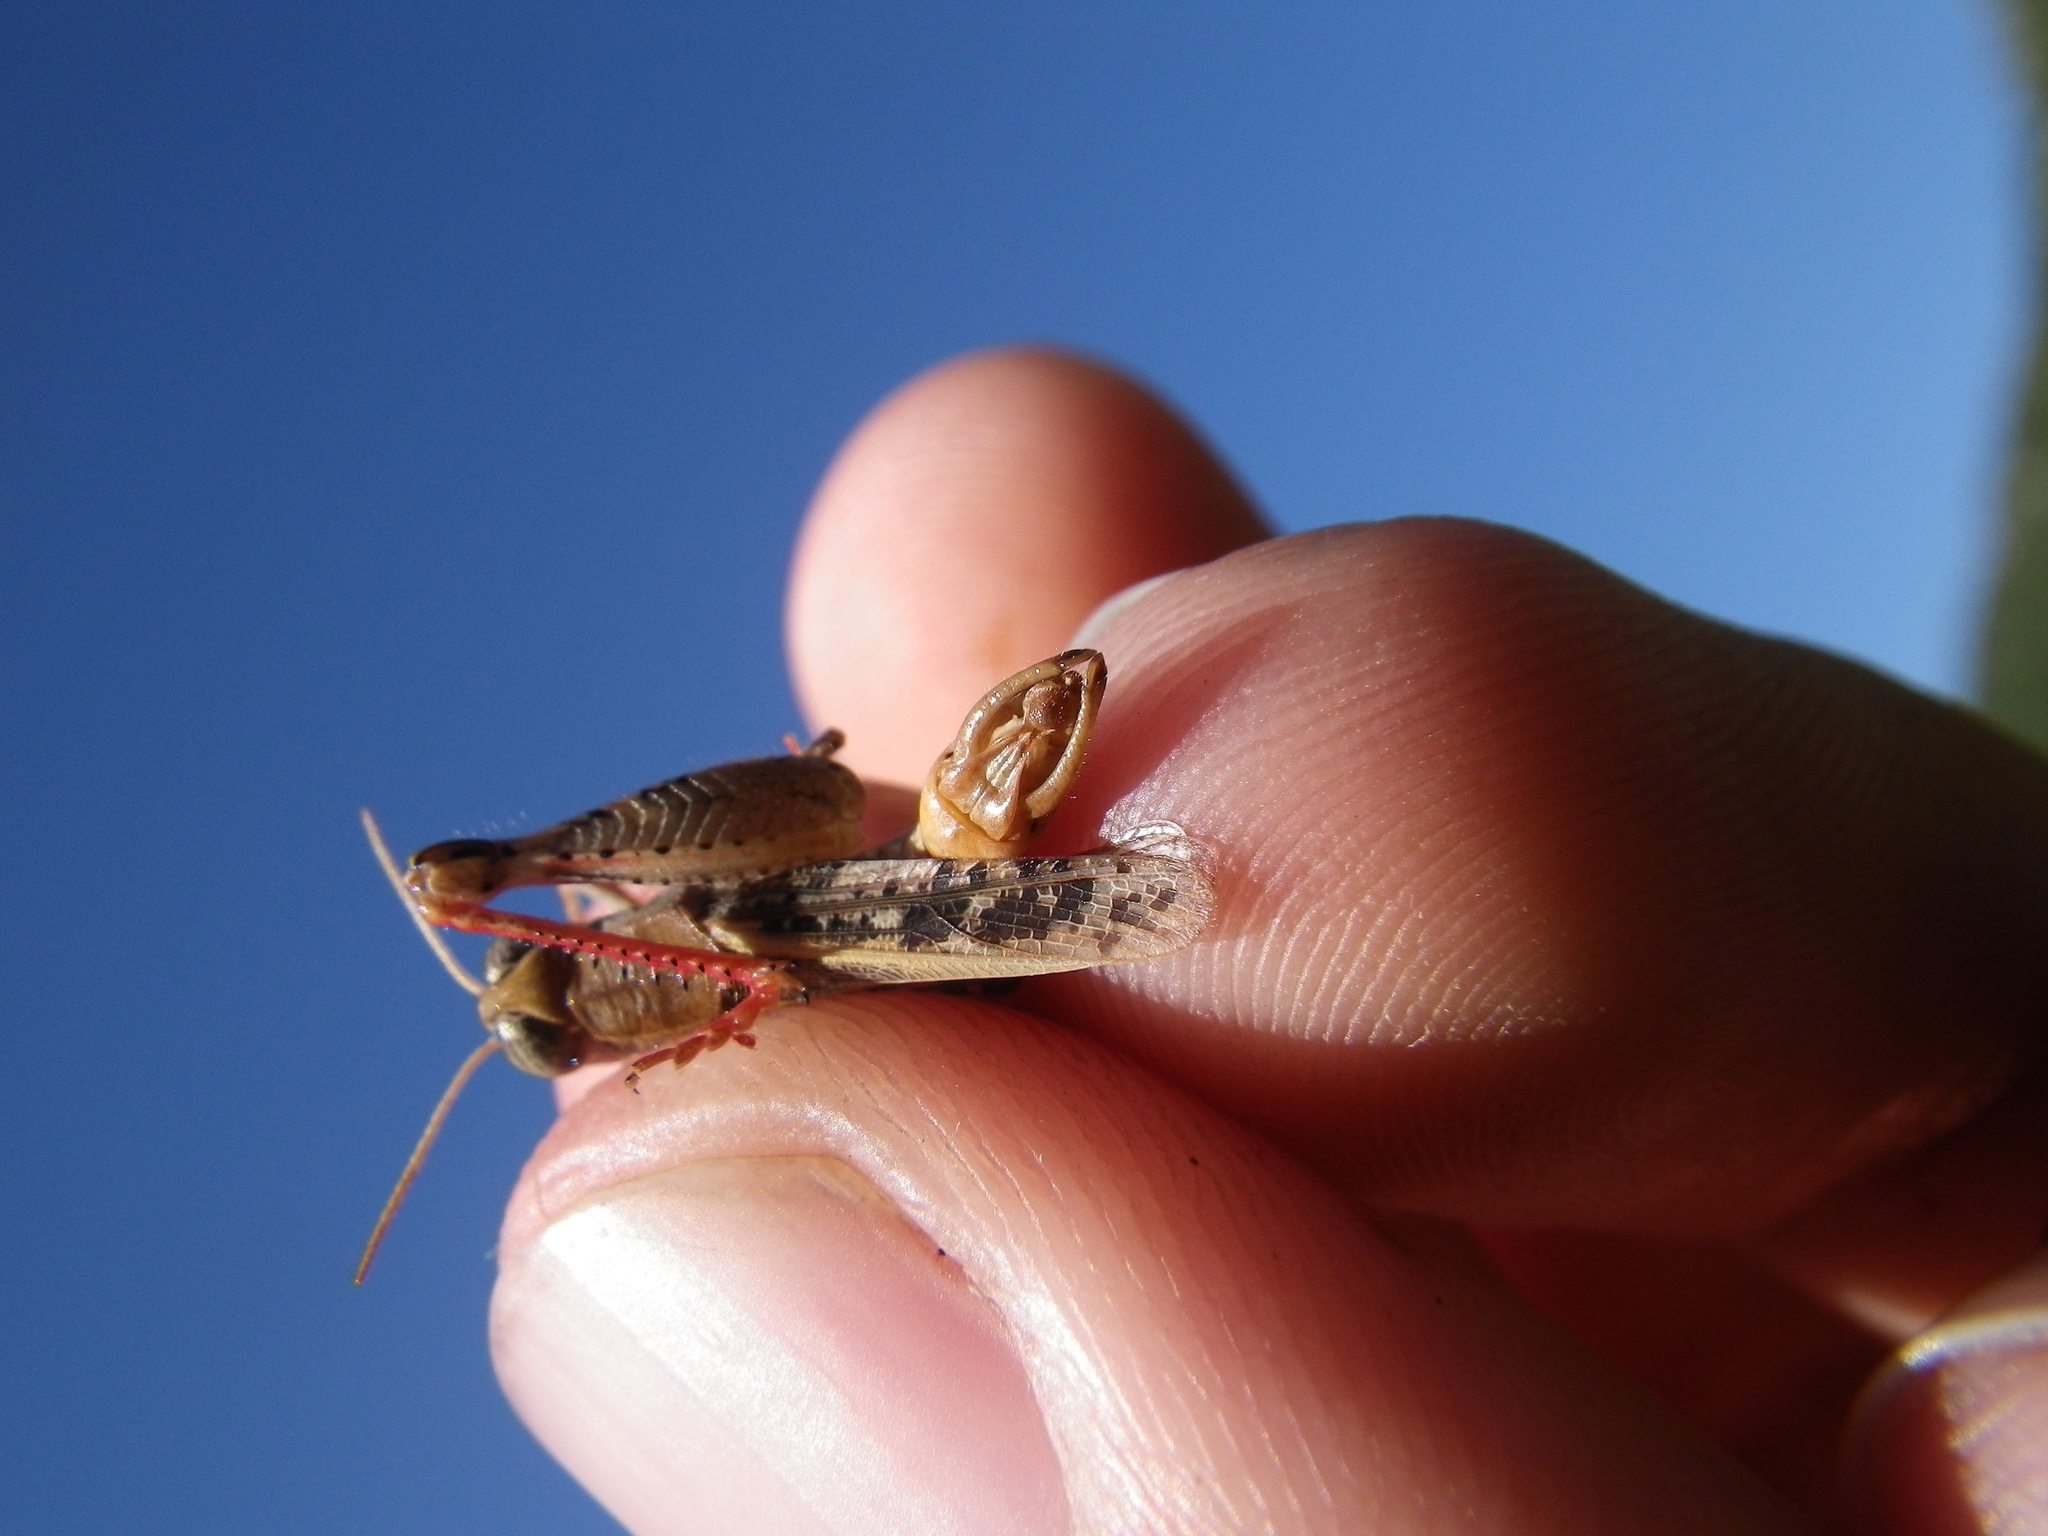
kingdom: Animalia
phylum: Arthropoda
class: Insecta
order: Orthoptera
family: Acrididae
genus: Calliptamus
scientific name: Calliptamus barbarus
